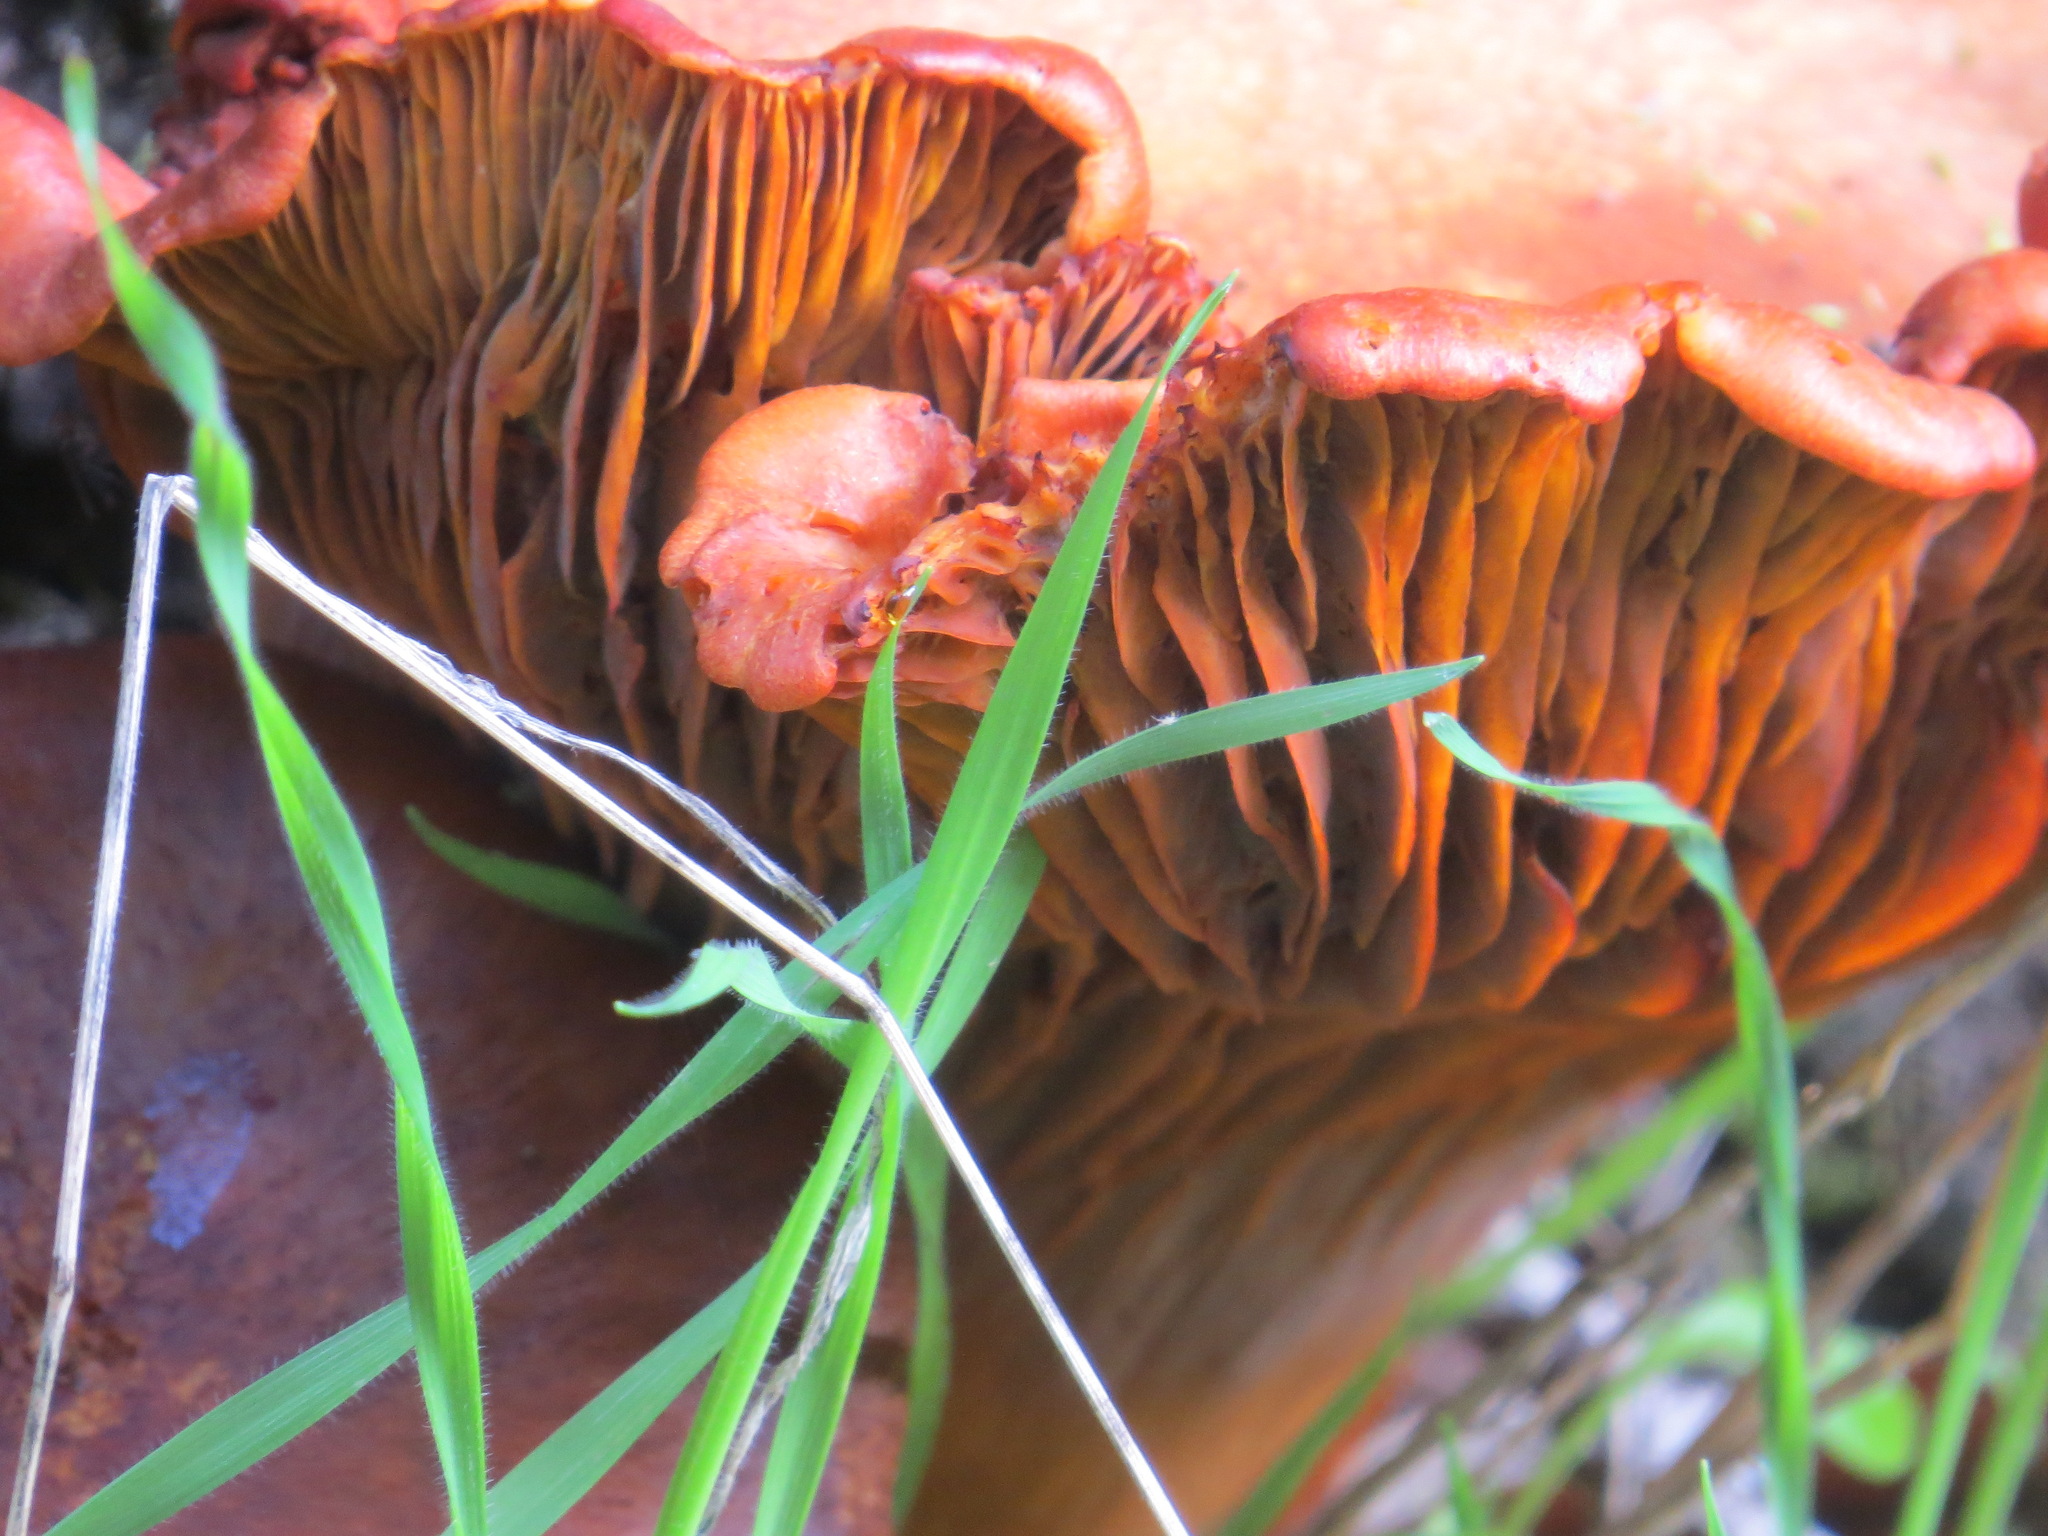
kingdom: Fungi
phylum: Basidiomycota
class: Agaricomycetes
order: Agaricales
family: Omphalotaceae
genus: Omphalotus
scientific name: Omphalotus olivascens
